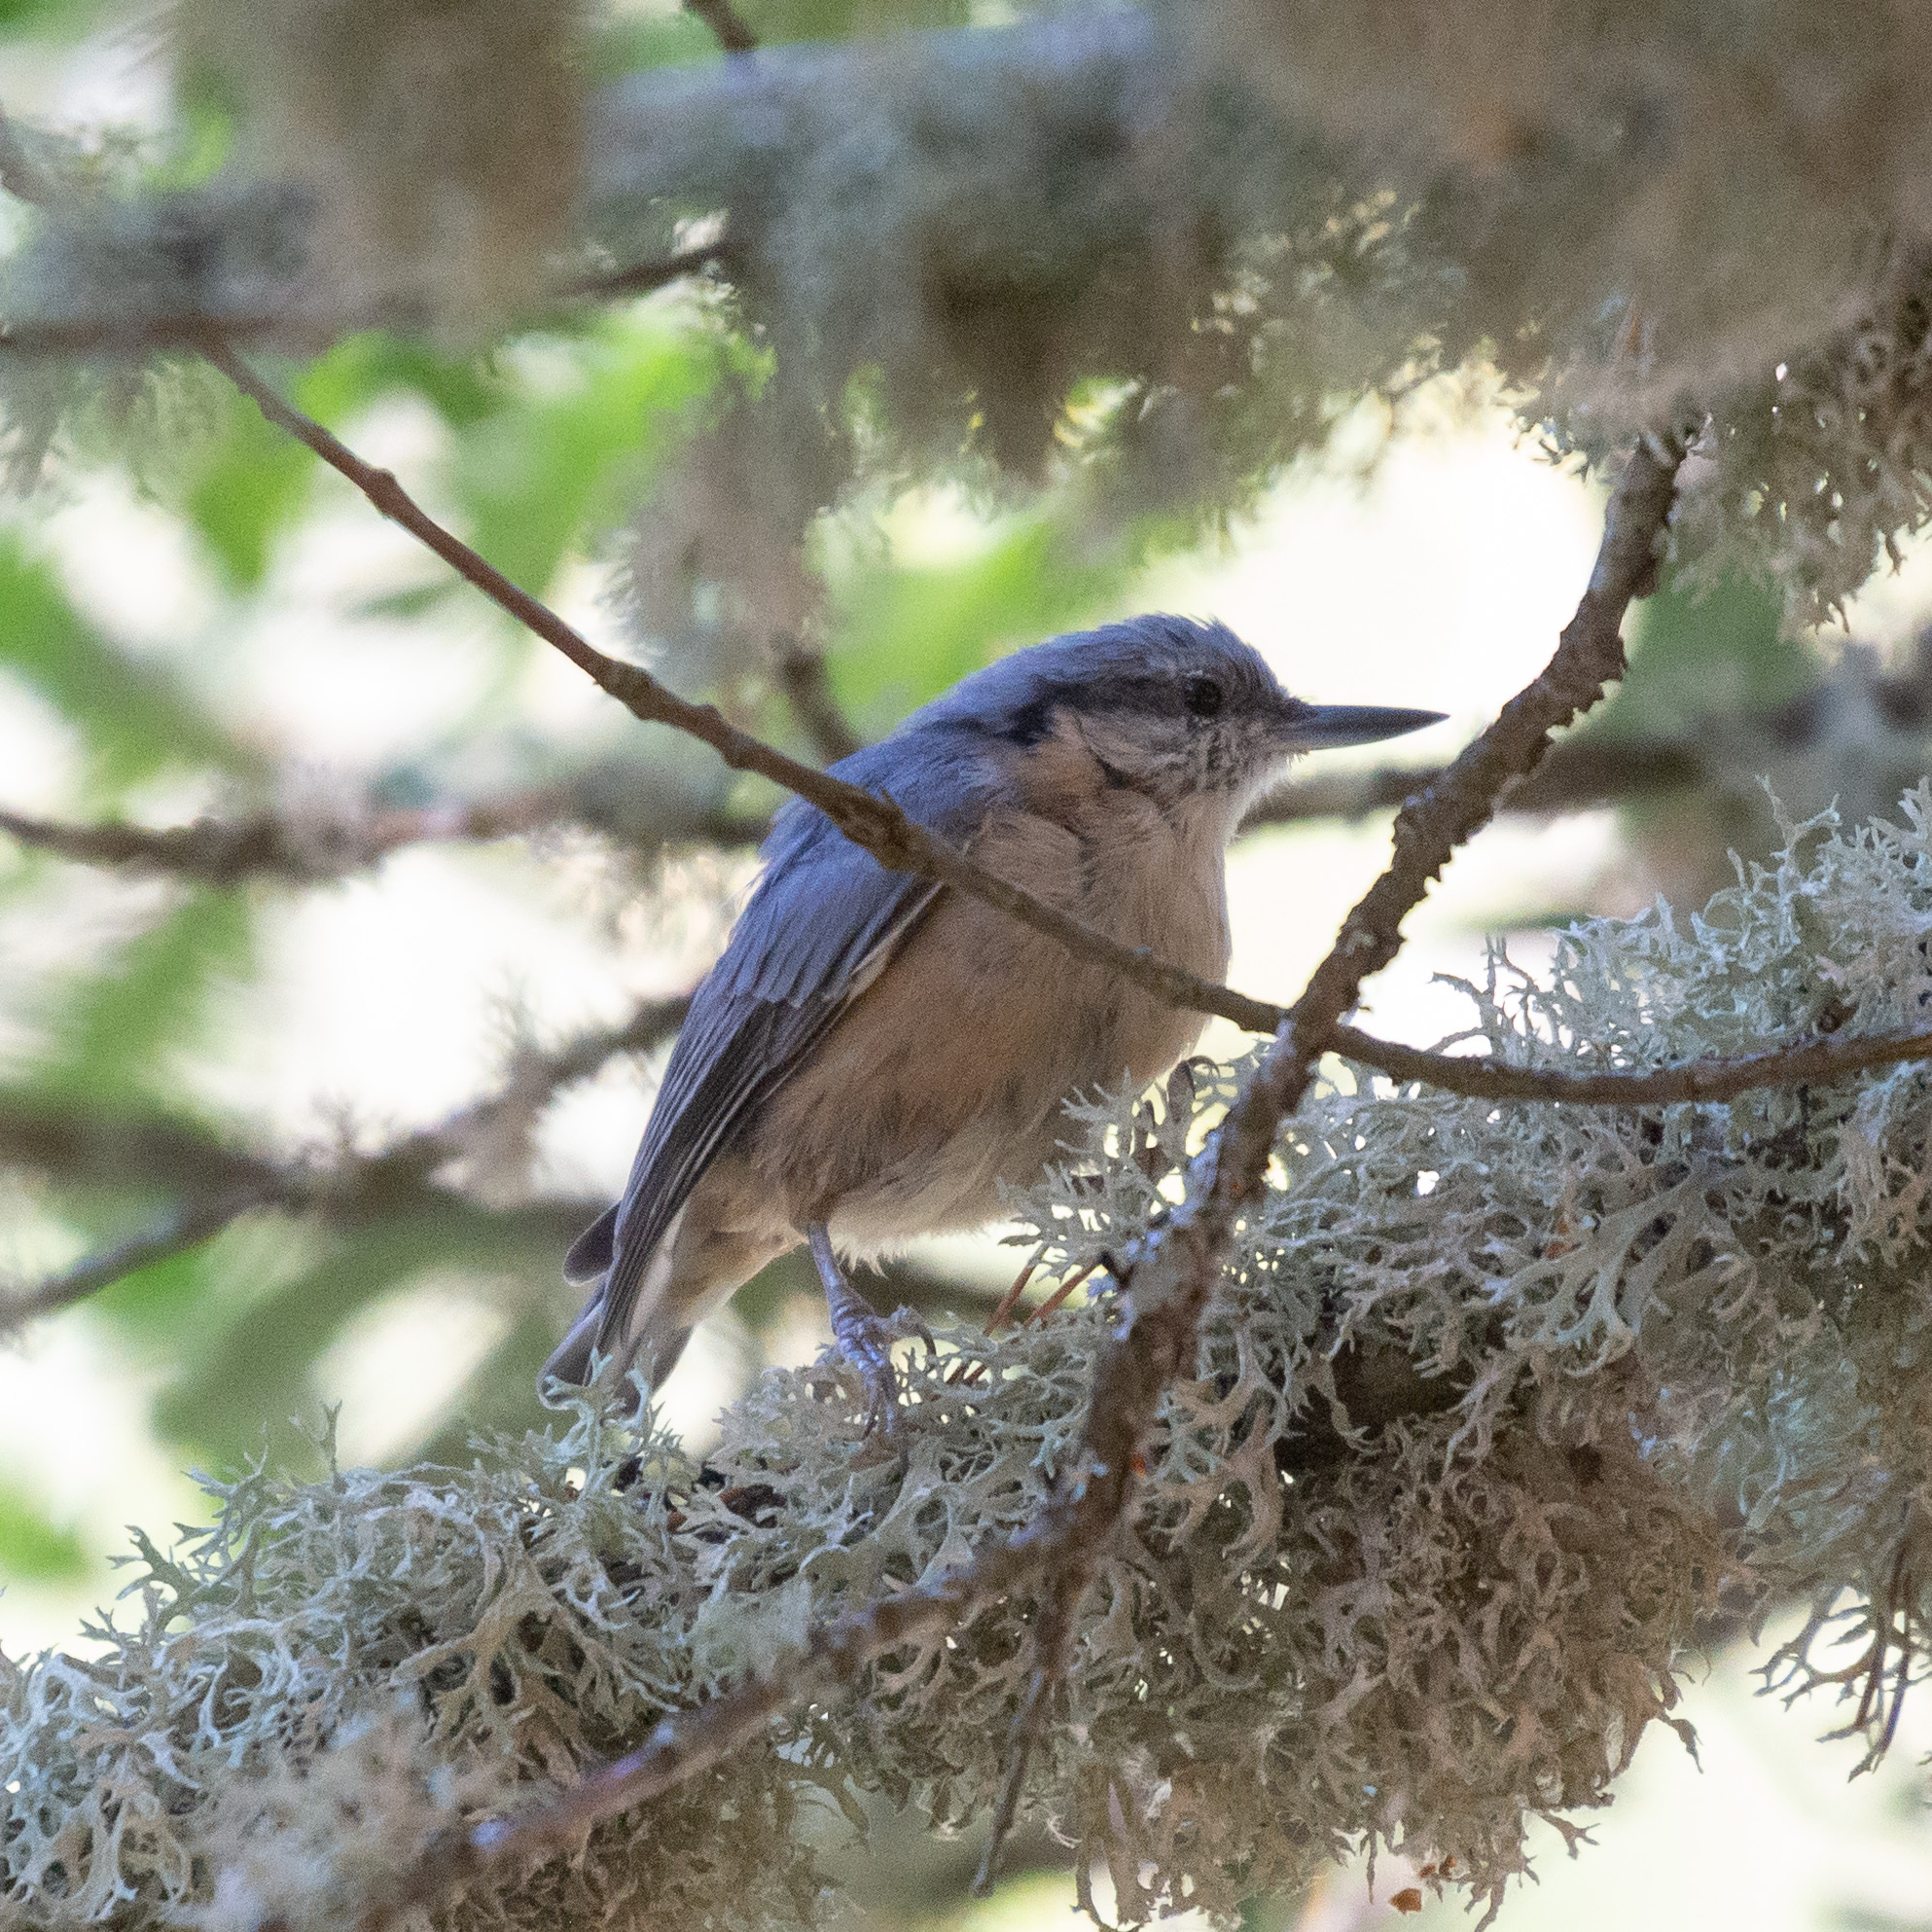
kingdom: Animalia
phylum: Chordata
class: Aves
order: Passeriformes
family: Sittidae
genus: Sitta
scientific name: Sitta europaea
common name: Eurasian nuthatch
